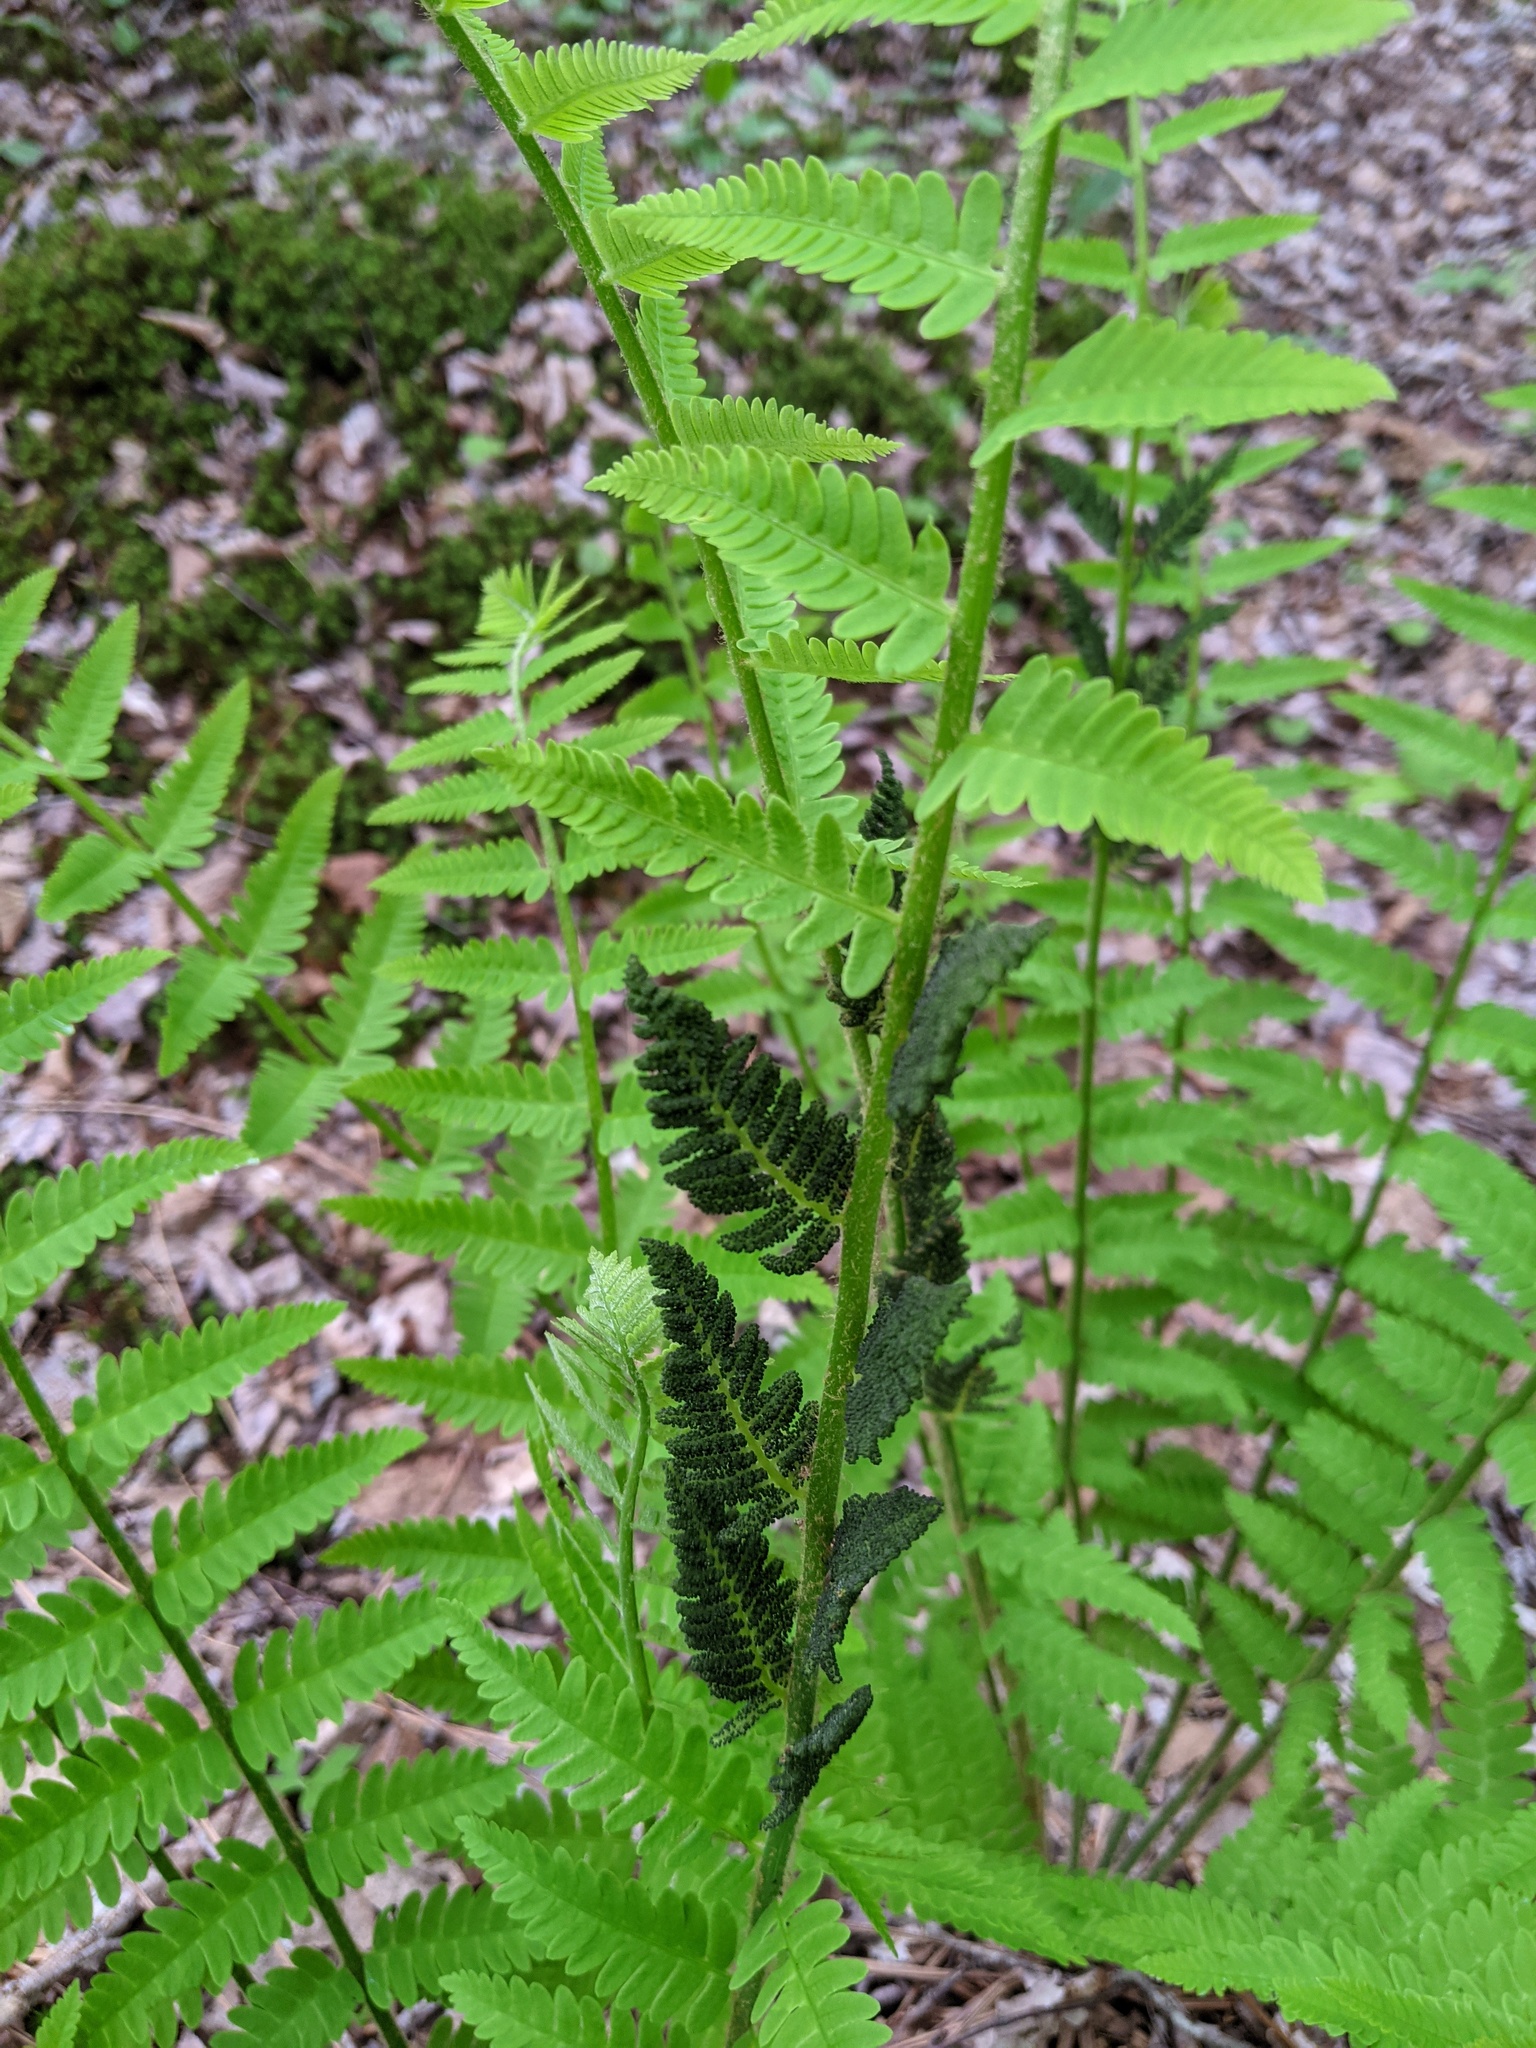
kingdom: Plantae
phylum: Tracheophyta
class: Polypodiopsida
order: Osmundales
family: Osmundaceae
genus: Claytosmunda
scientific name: Claytosmunda claytoniana
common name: Clayton's fern
